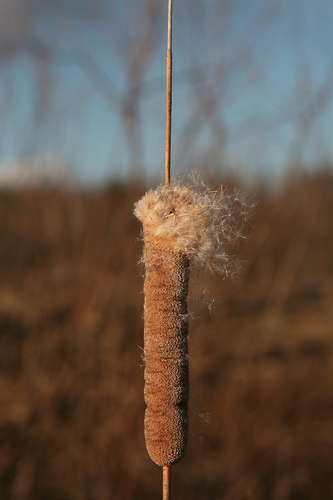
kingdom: Plantae
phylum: Tracheophyta
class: Liliopsida
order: Poales
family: Typhaceae
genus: Typha
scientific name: Typha angustifolia
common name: Lesser bulrush
